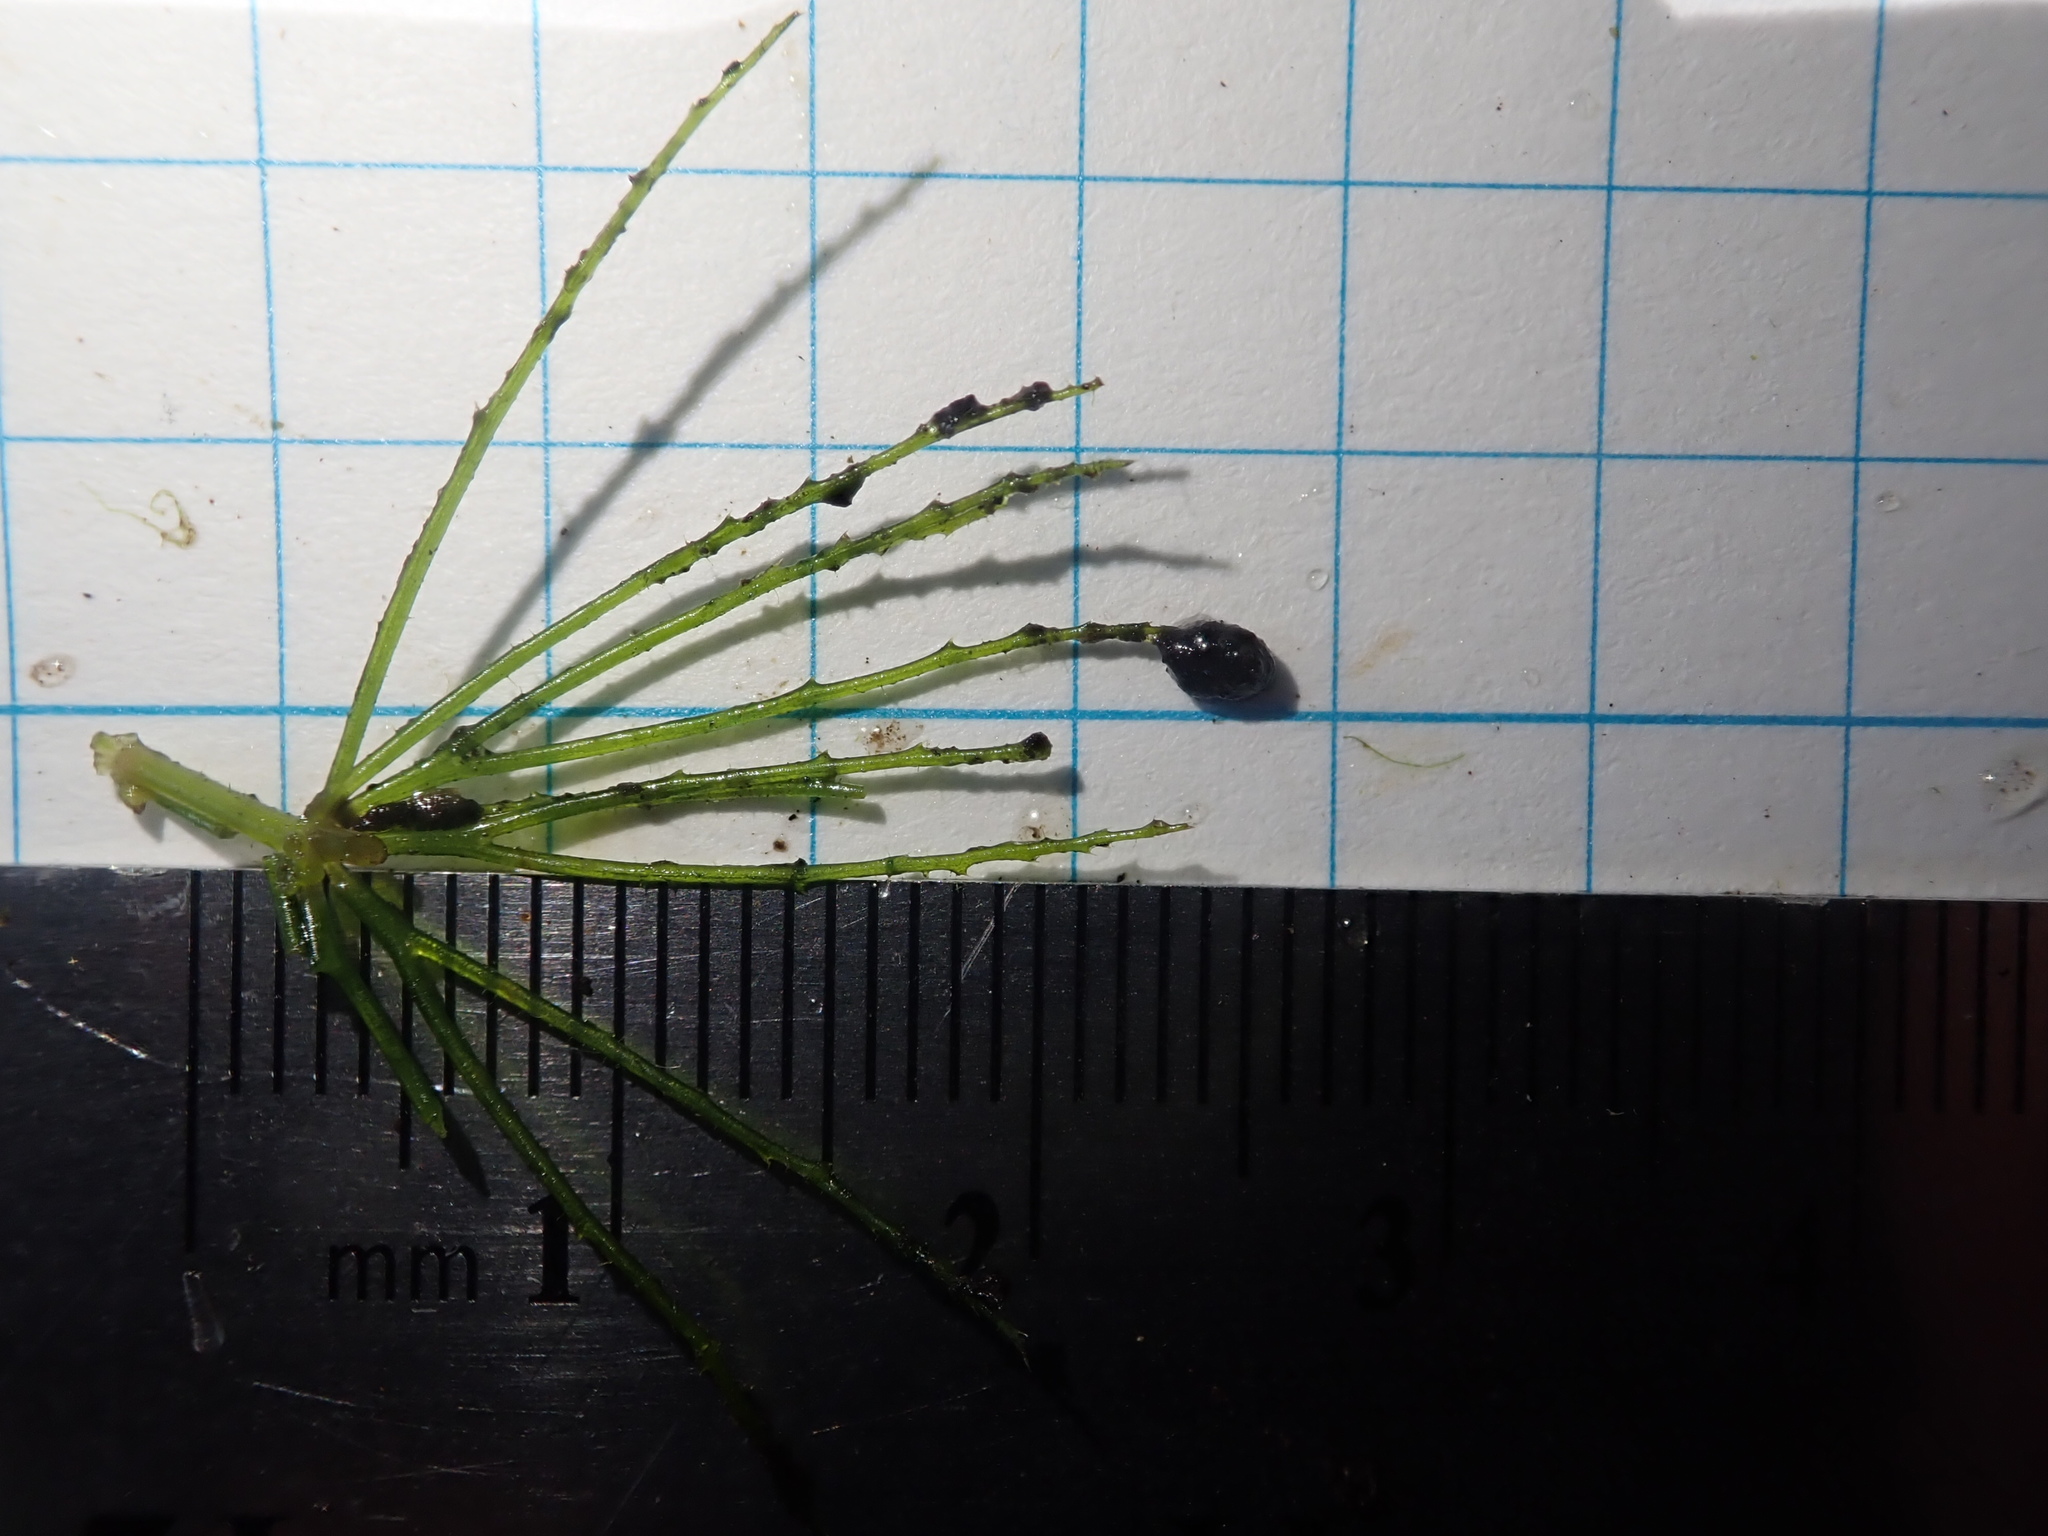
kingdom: Plantae
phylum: Tracheophyta
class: Magnoliopsida
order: Ceratophyllales
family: Ceratophyllaceae
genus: Ceratophyllum
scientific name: Ceratophyllum demersum
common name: Rigid hornwort
